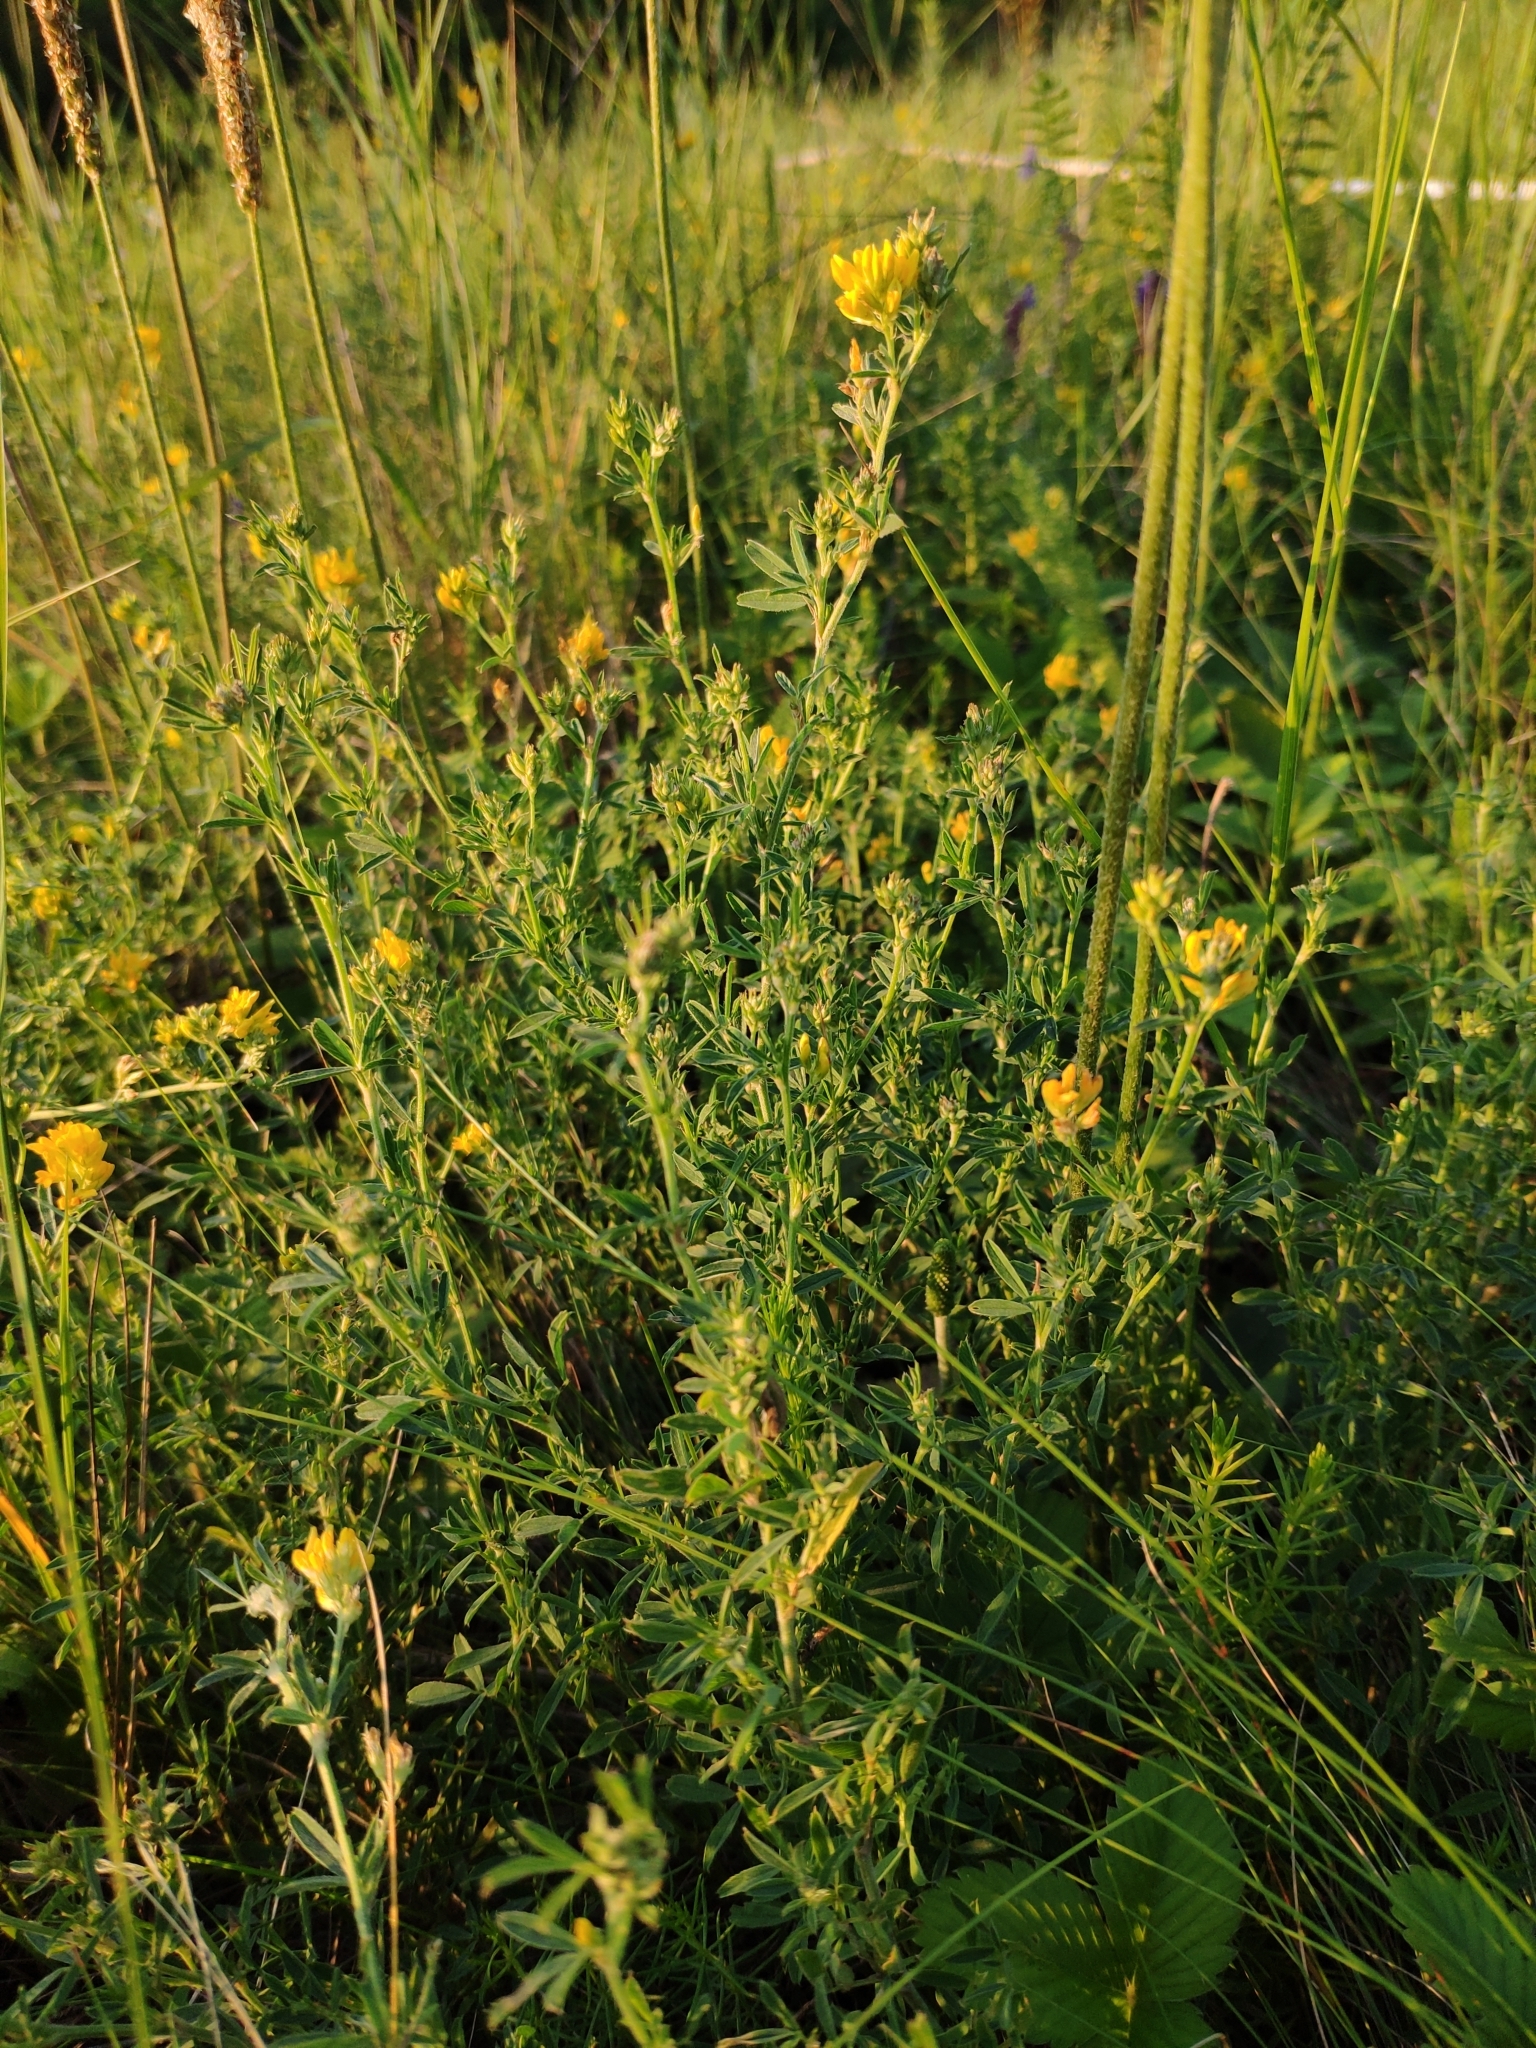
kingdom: Plantae
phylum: Tracheophyta
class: Magnoliopsida
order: Fabales
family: Fabaceae
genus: Medicago
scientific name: Medicago falcata
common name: Sickle medick
